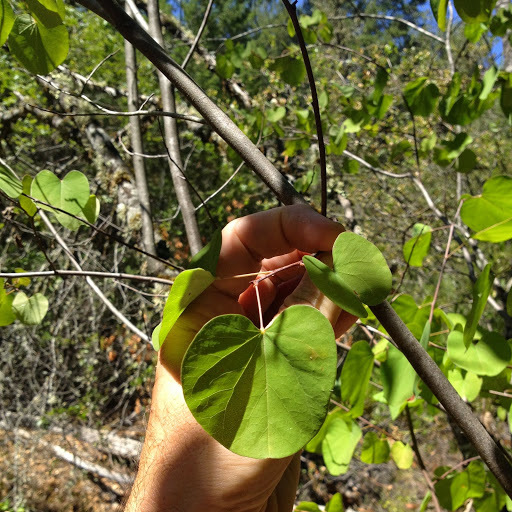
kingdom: Plantae
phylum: Tracheophyta
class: Magnoliopsida
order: Fabales
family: Fabaceae
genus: Cercis
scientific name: Cercis occidentalis
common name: California redbud
